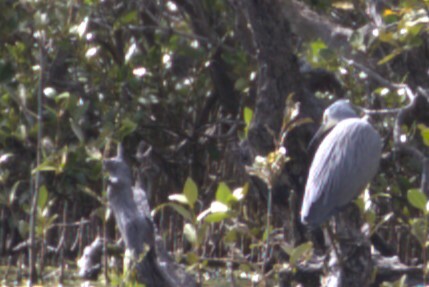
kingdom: Animalia
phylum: Chordata
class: Aves
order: Pelecaniformes
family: Ardeidae
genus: Egretta
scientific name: Egretta novaehollandiae
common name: White-faced heron
